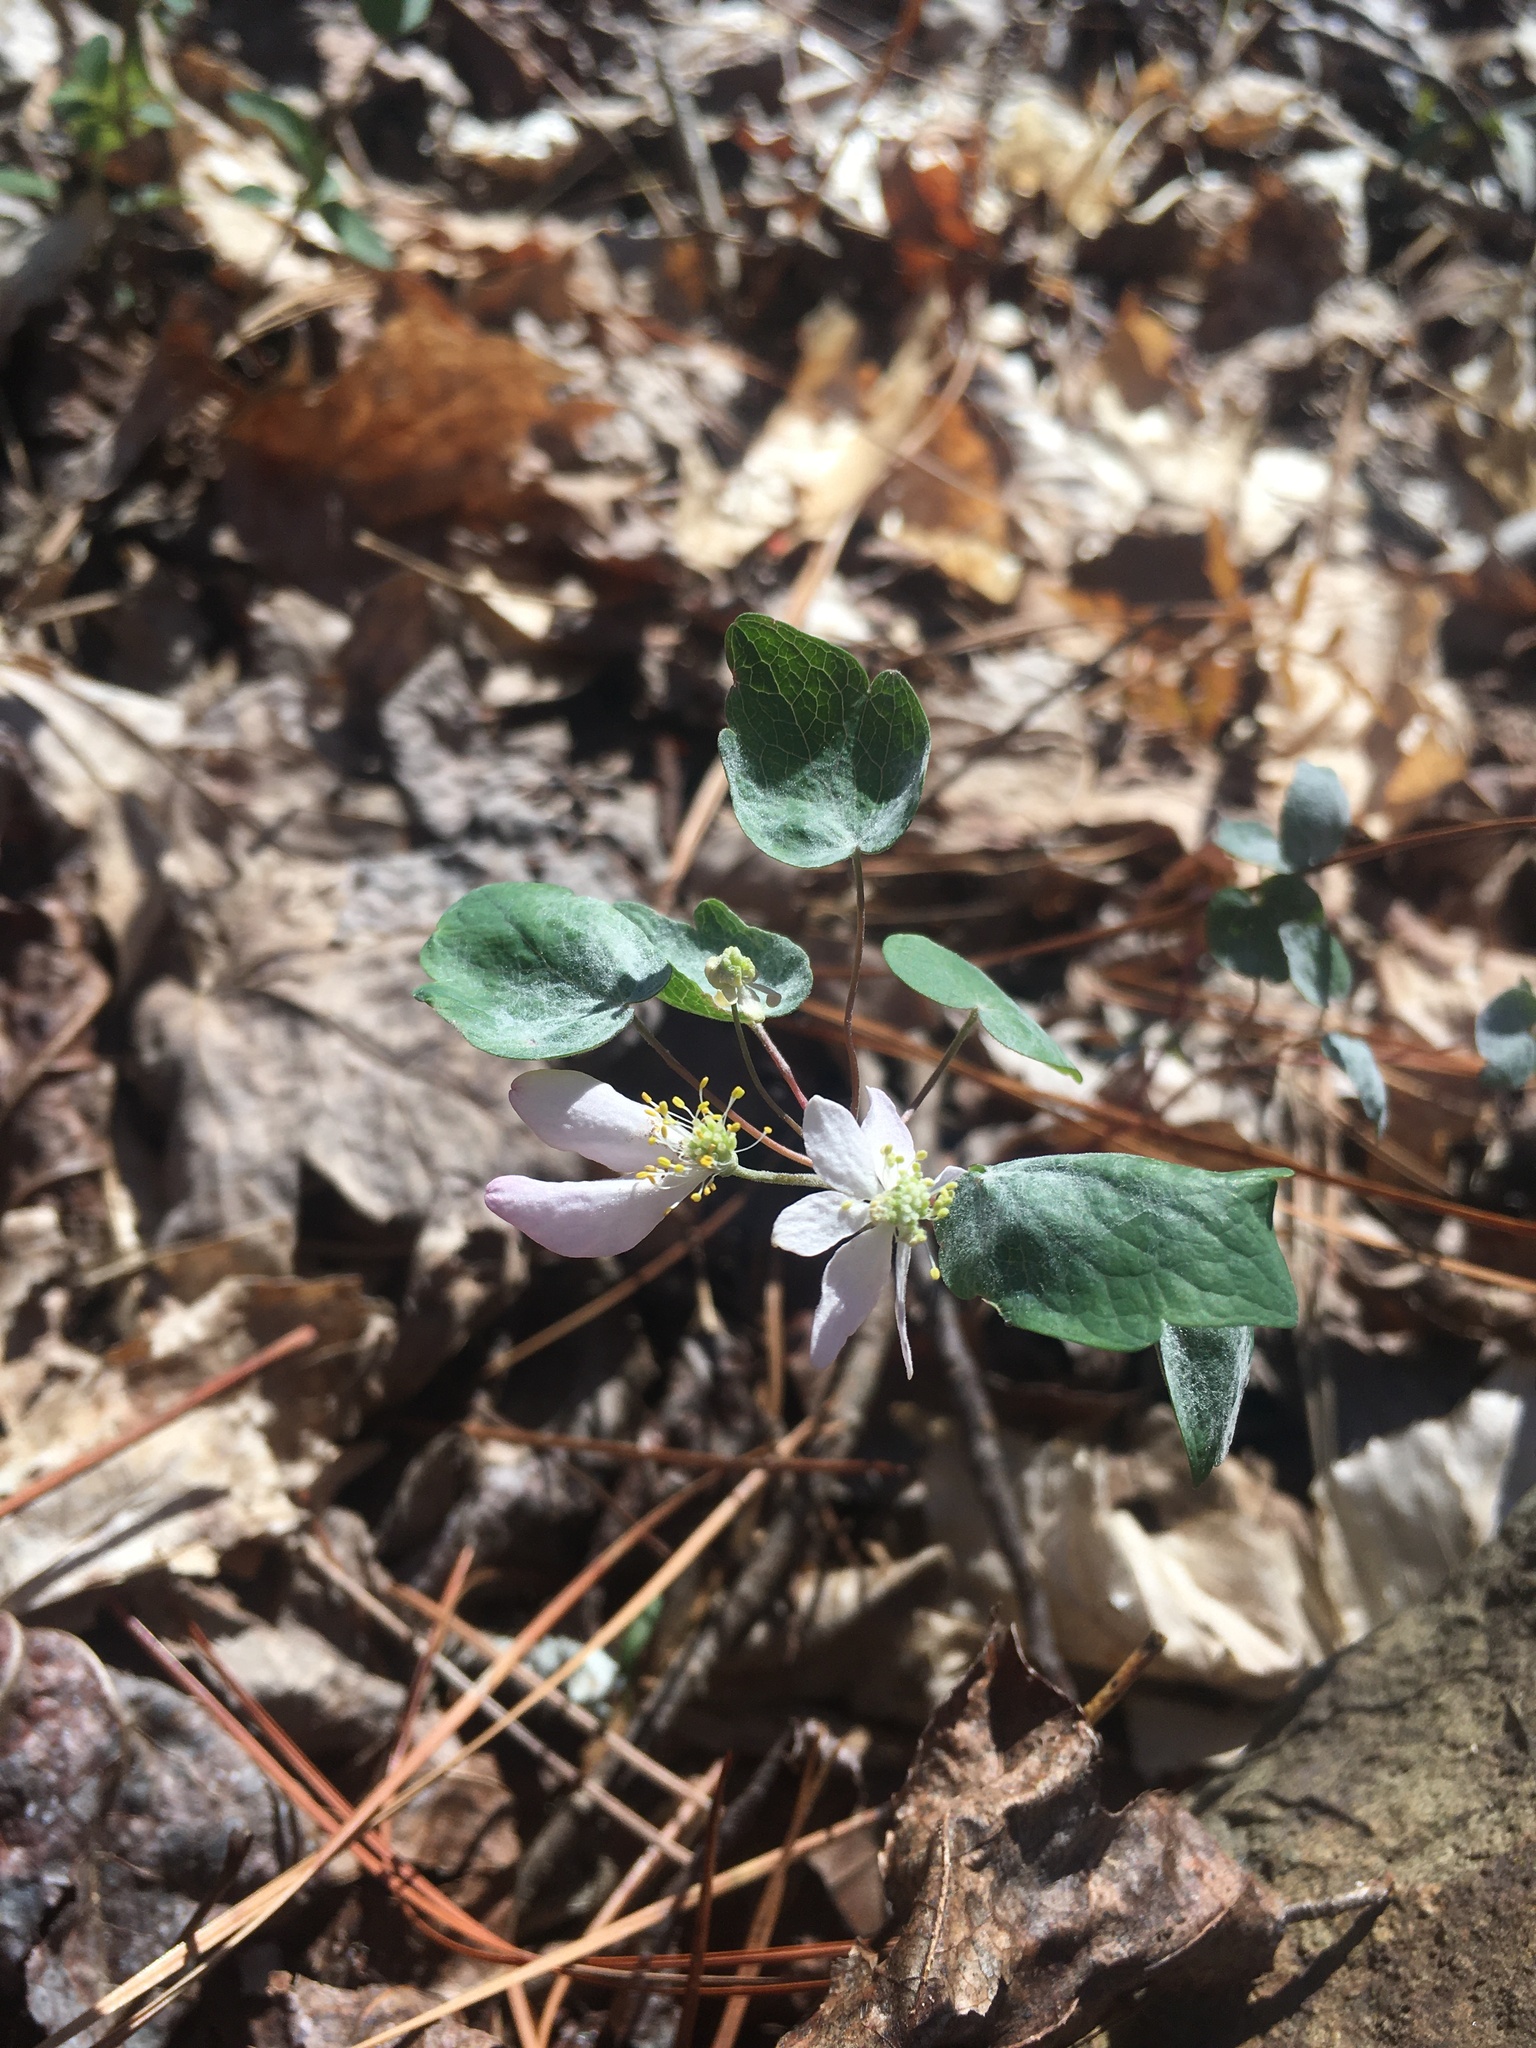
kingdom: Plantae
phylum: Tracheophyta
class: Magnoliopsida
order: Ranunculales
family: Ranunculaceae
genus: Thalictrum
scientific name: Thalictrum thalictroides
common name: Rue-anemone
